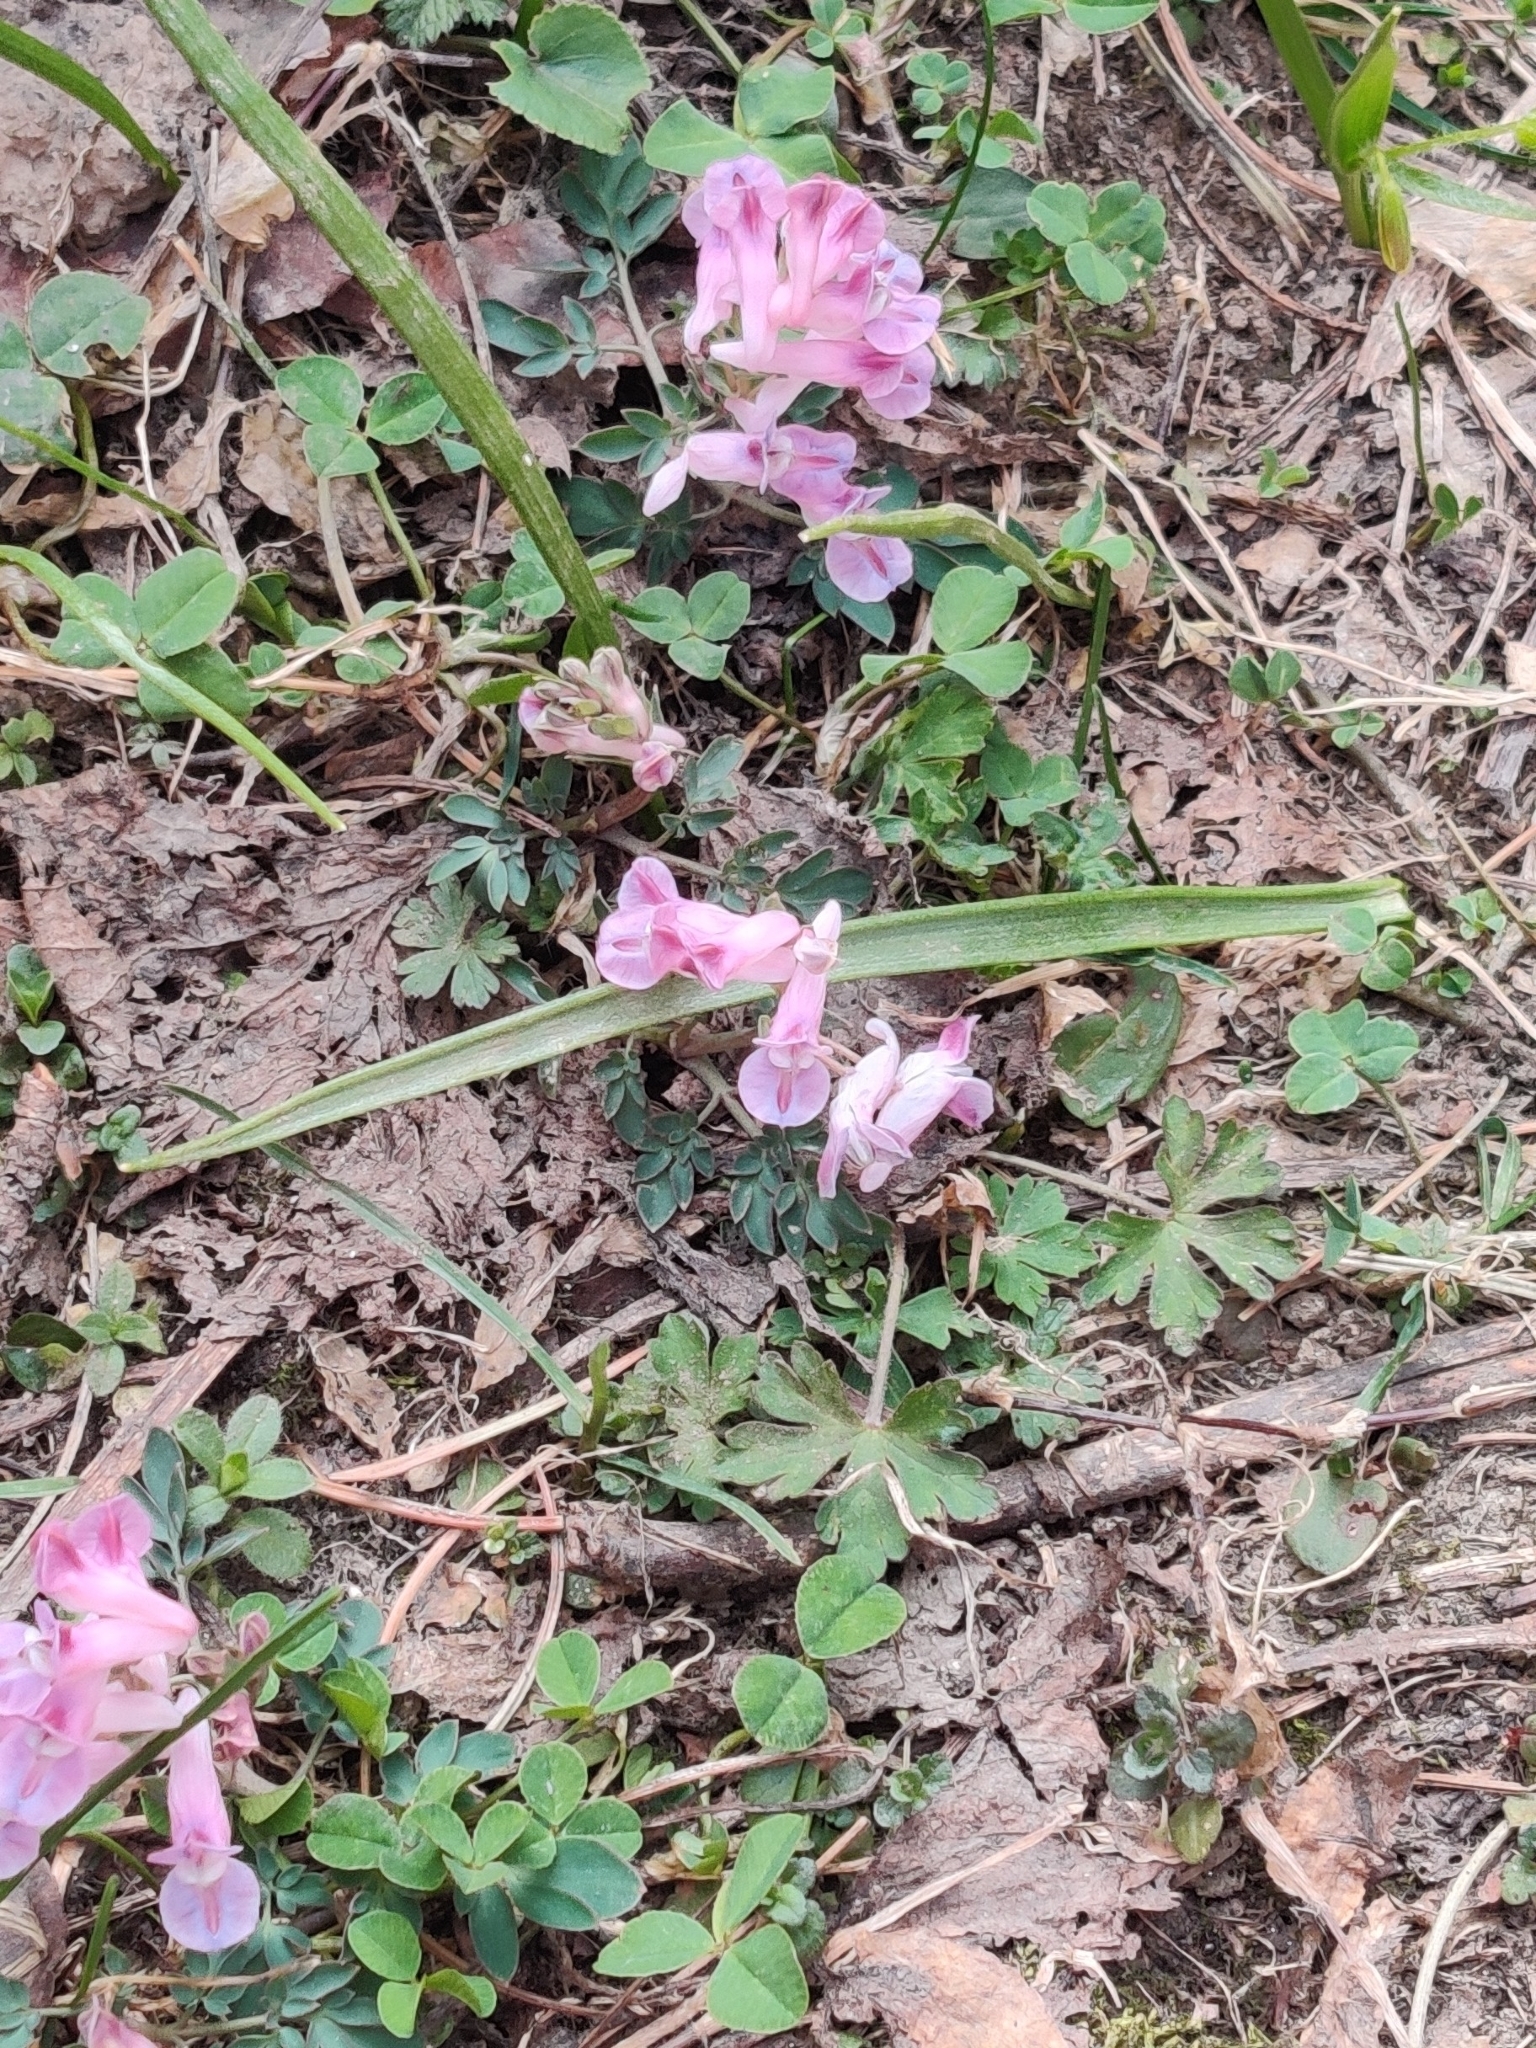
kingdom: Plantae
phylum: Tracheophyta
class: Magnoliopsida
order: Ranunculales
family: Papaveraceae
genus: Corydalis
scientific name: Corydalis diphylla
